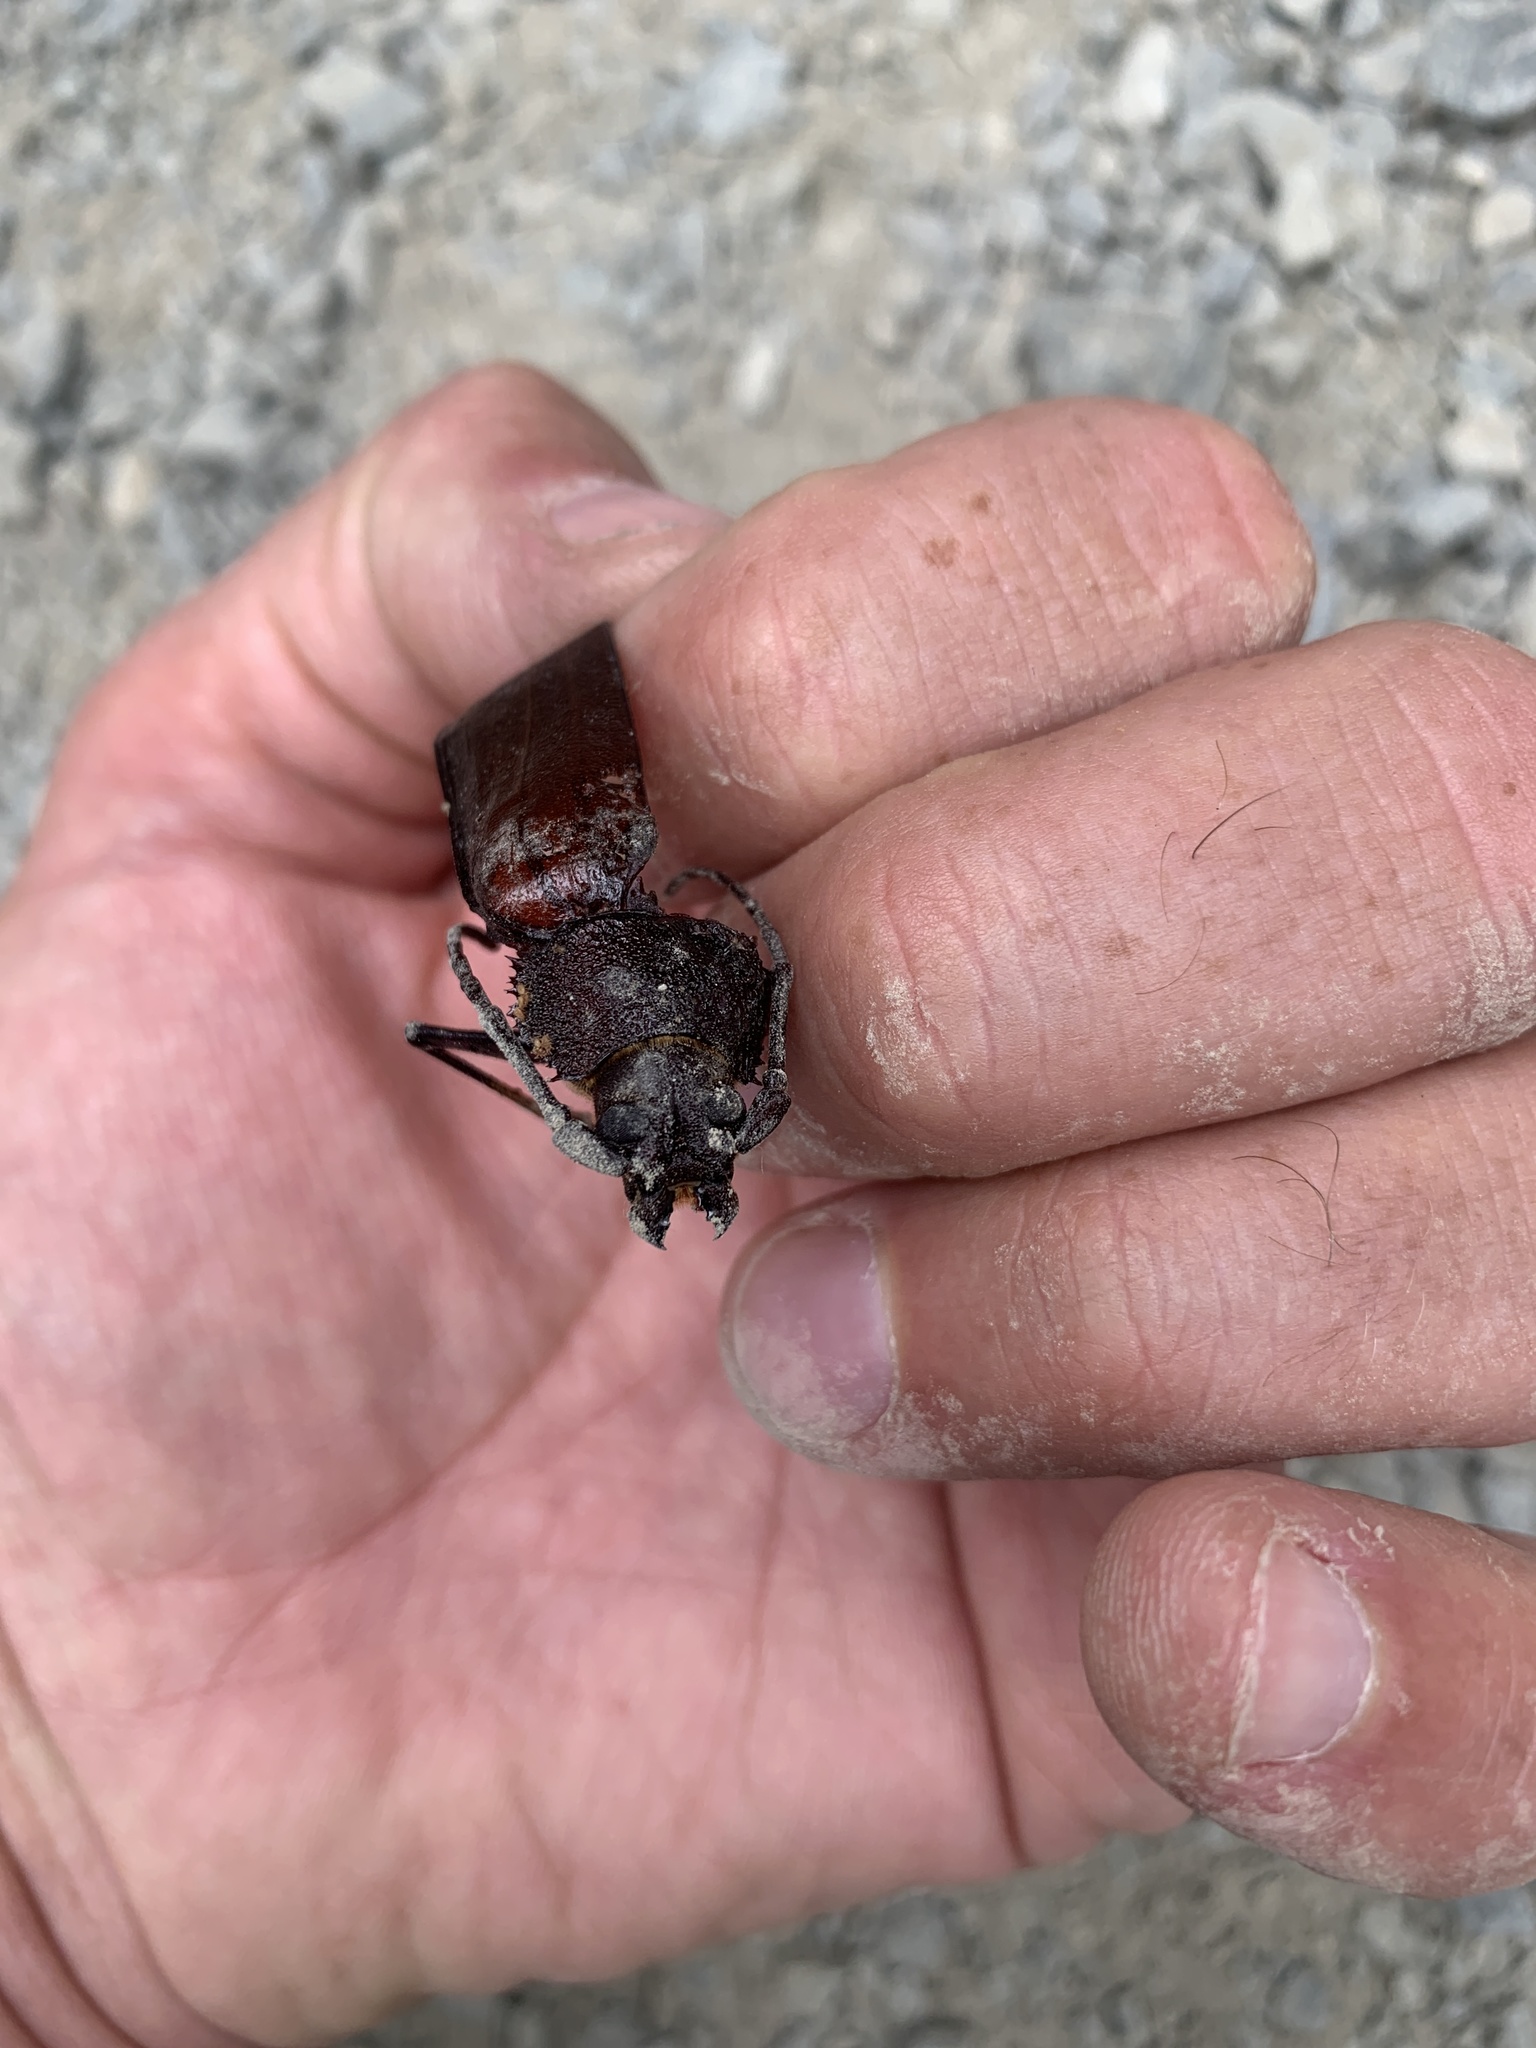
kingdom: Animalia
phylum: Arthropoda
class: Insecta
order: Coleoptera
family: Cerambycidae
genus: Trichocnemis
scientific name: Trichocnemis spiculatus
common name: Long-horned beetle
